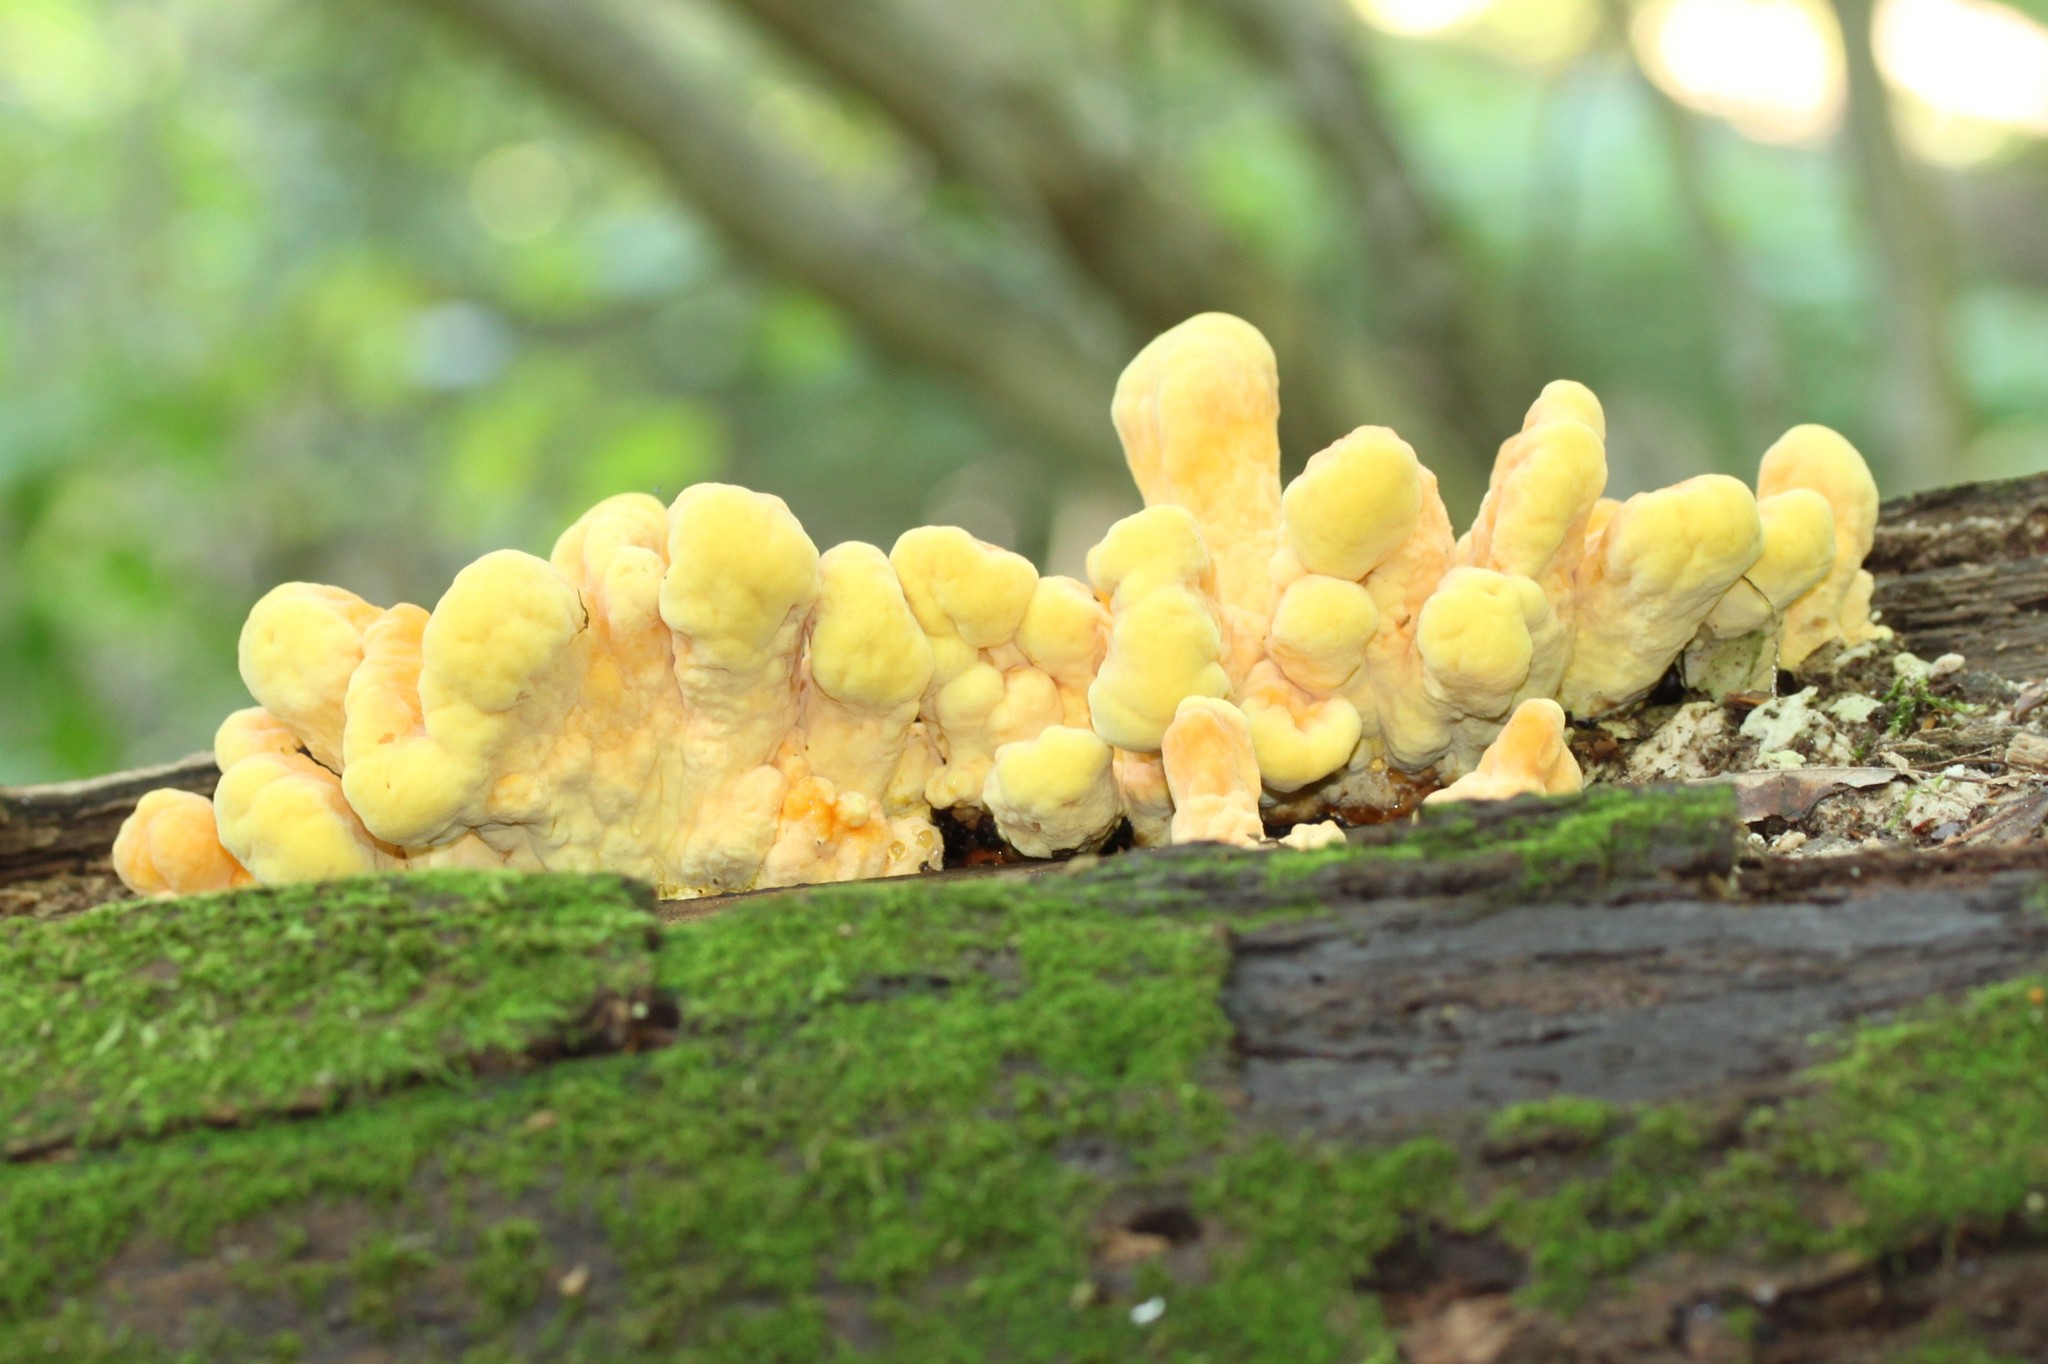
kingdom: Fungi
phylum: Basidiomycota
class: Agaricomycetes
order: Polyporales
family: Laetiporaceae
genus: Laetiporus
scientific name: Laetiporus sulphureus
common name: Chicken of the woods
